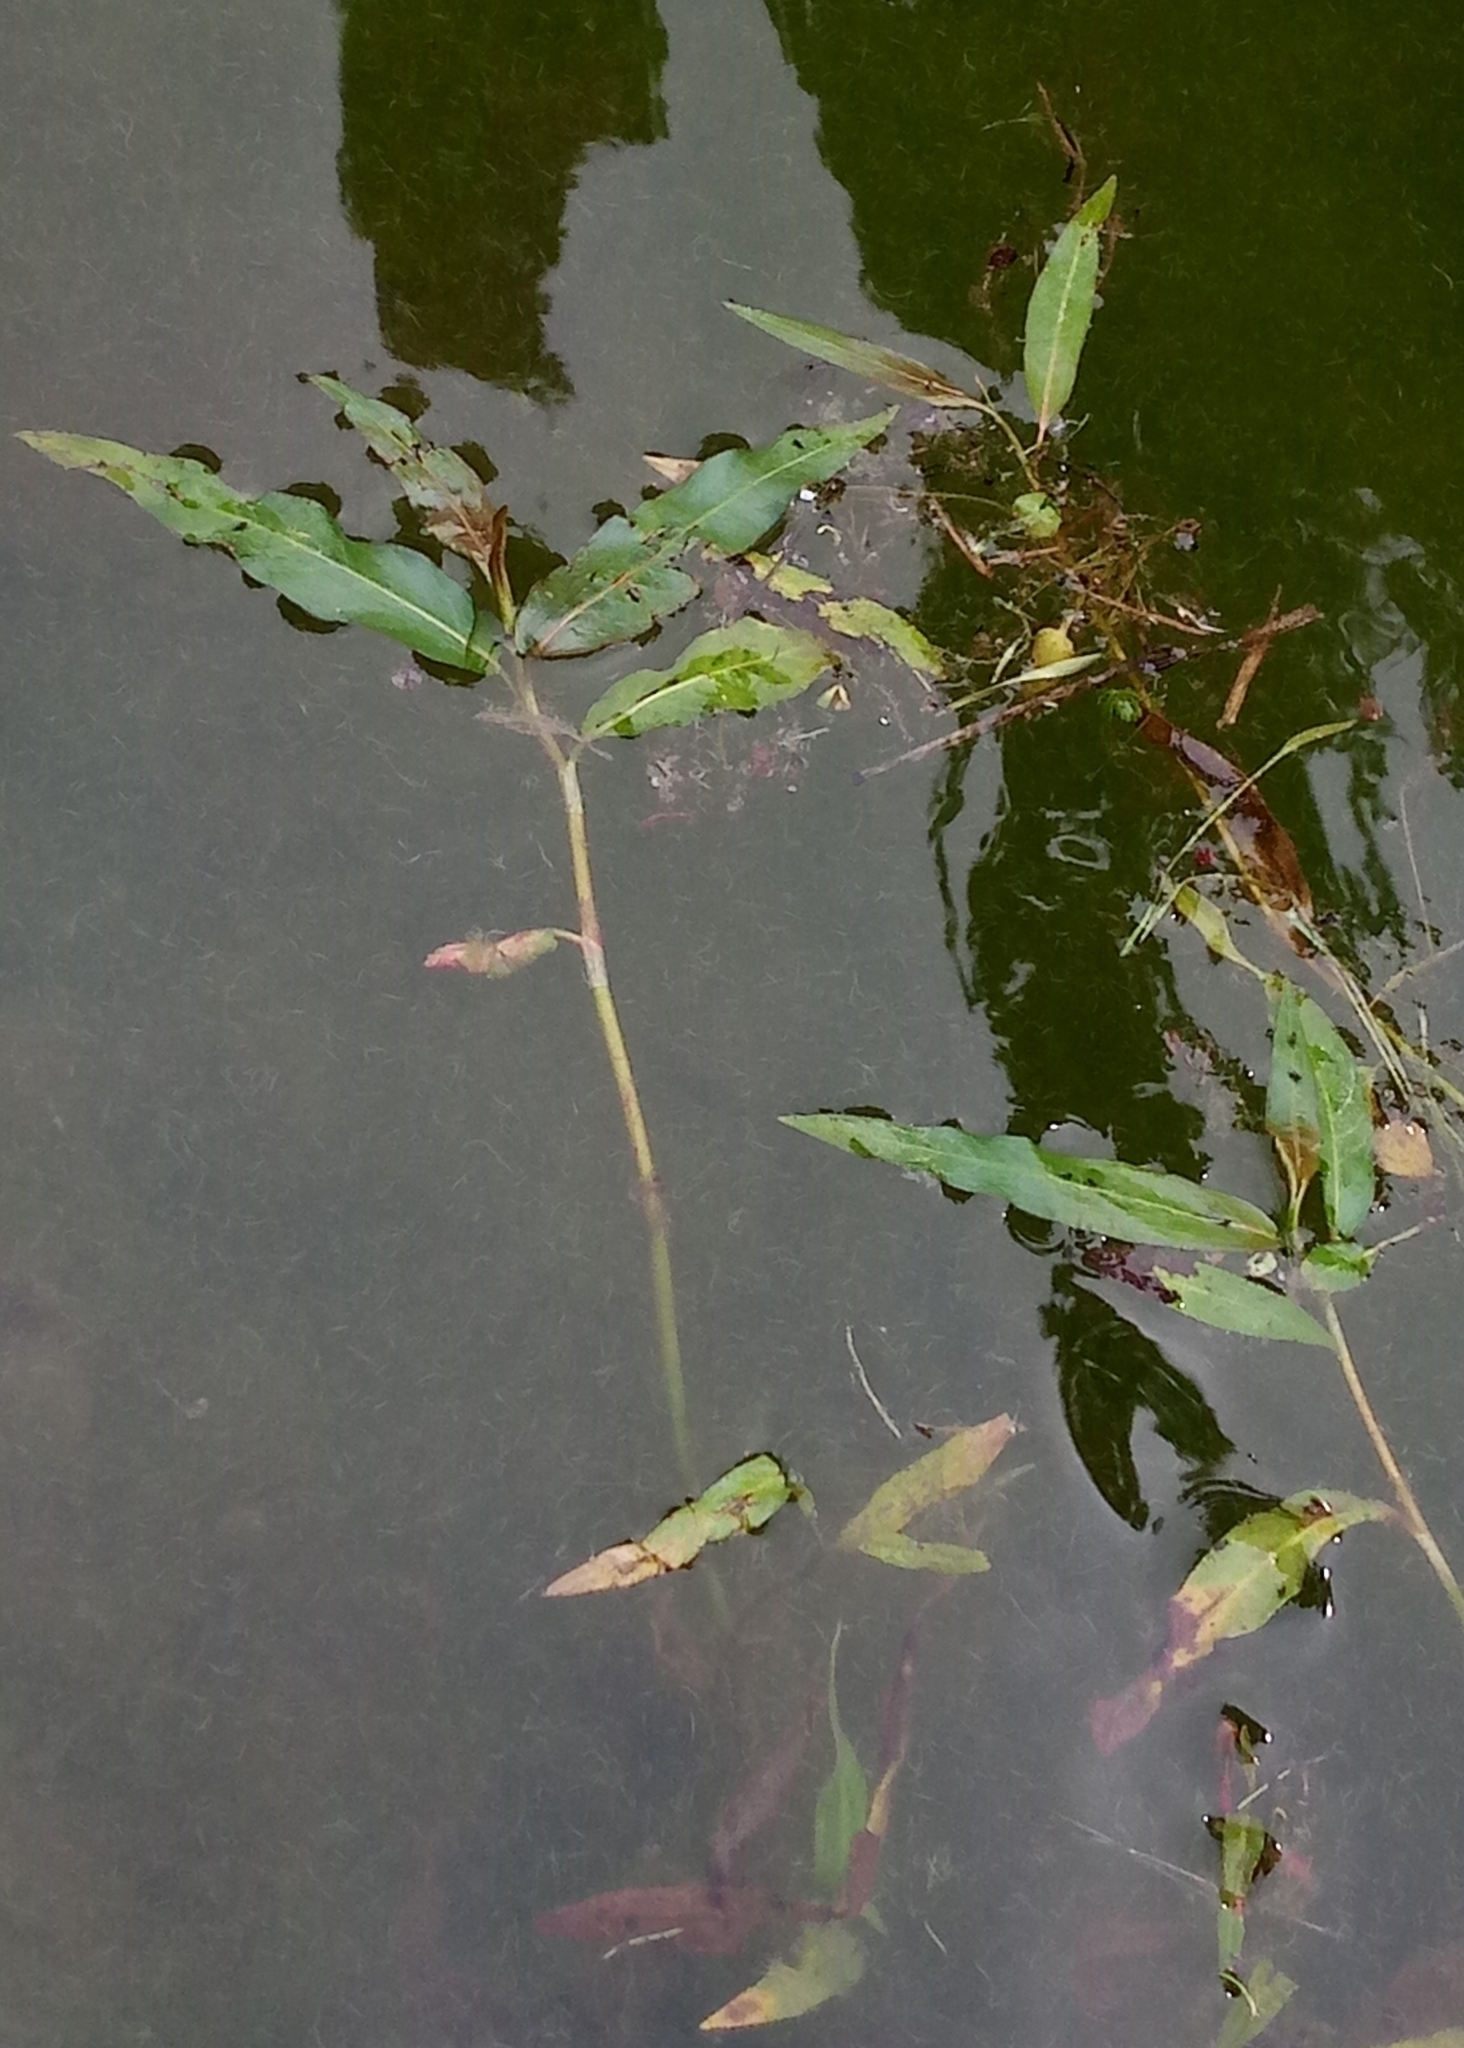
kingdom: Plantae
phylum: Tracheophyta
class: Magnoliopsida
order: Caryophyllales
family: Polygonaceae
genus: Persicaria
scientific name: Persicaria amphibia
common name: Amphibious bistort
